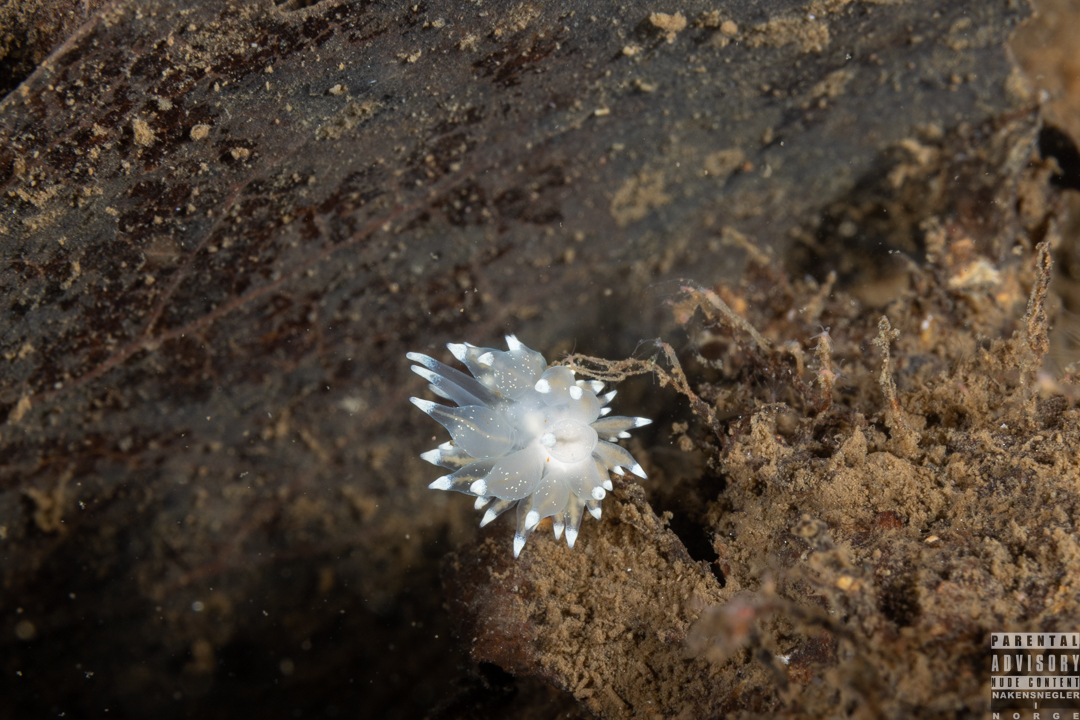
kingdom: Animalia
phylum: Mollusca
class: Gastropoda
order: Nudibranchia
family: Eubranchidae
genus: Amphorina
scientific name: Amphorina linensis
